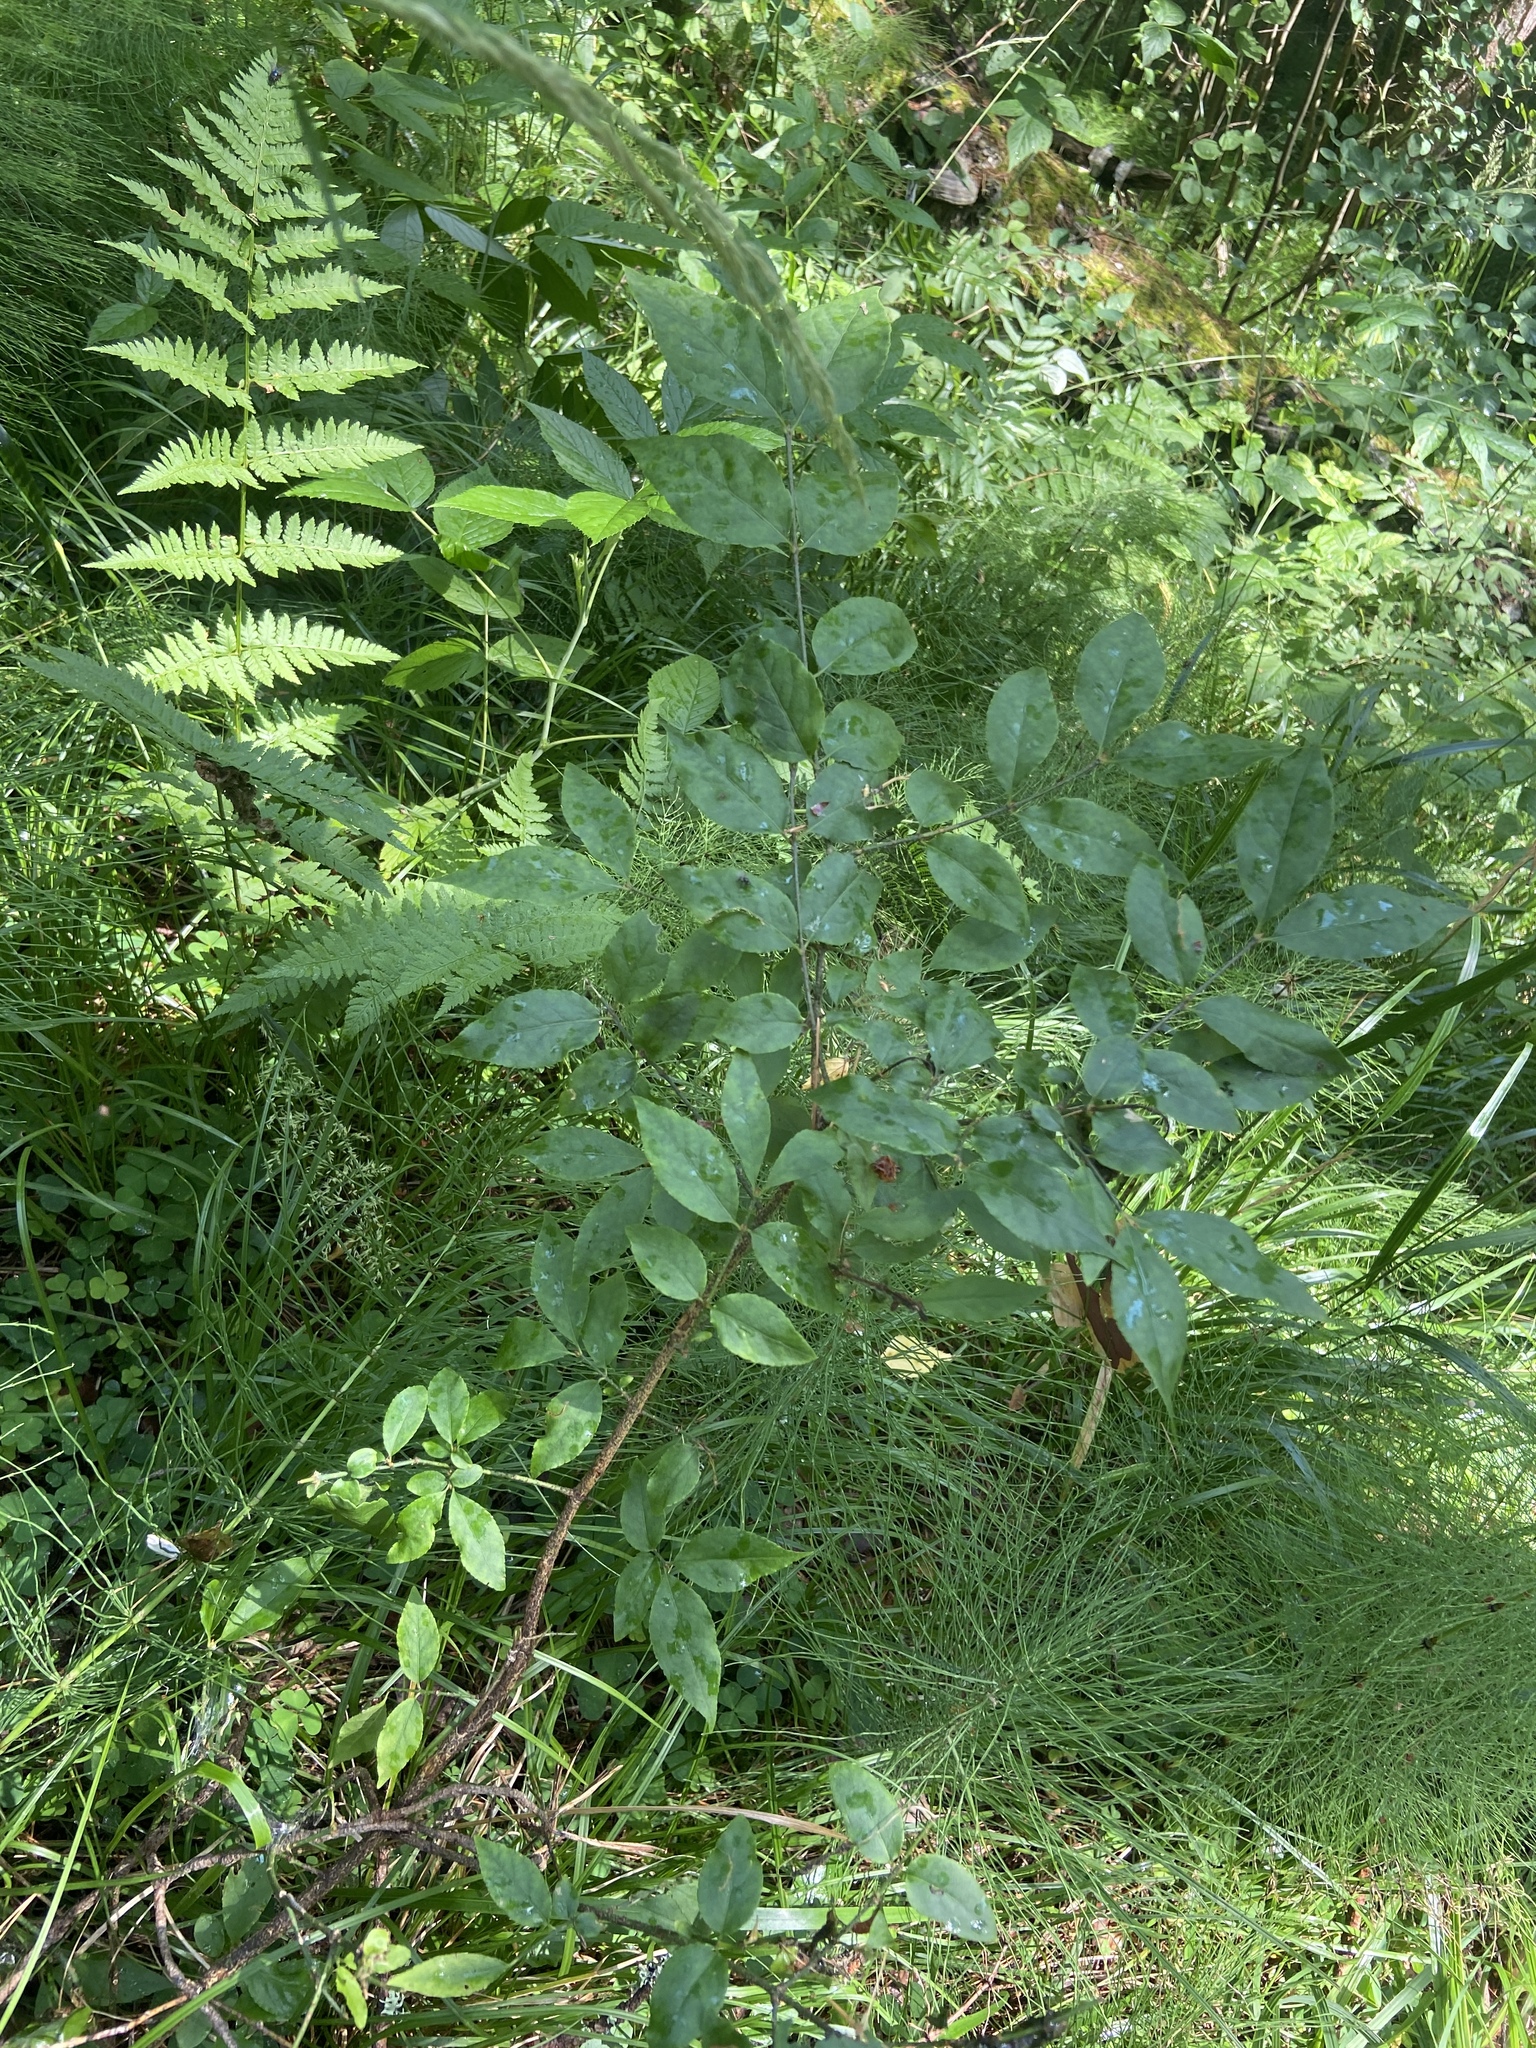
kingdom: Plantae
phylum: Tracheophyta
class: Magnoliopsida
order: Celastrales
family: Celastraceae
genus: Euonymus
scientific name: Euonymus verrucosus
